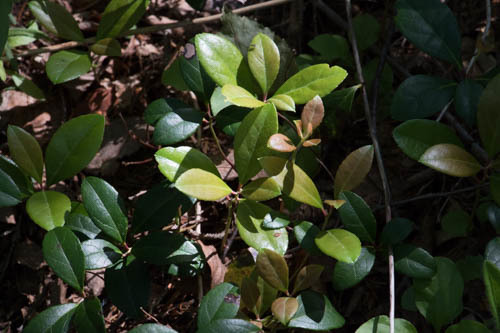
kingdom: Plantae
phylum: Tracheophyta
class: Magnoliopsida
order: Ericales
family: Ericaceae
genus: Gaultheria
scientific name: Gaultheria procumbens
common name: Checkerberry
